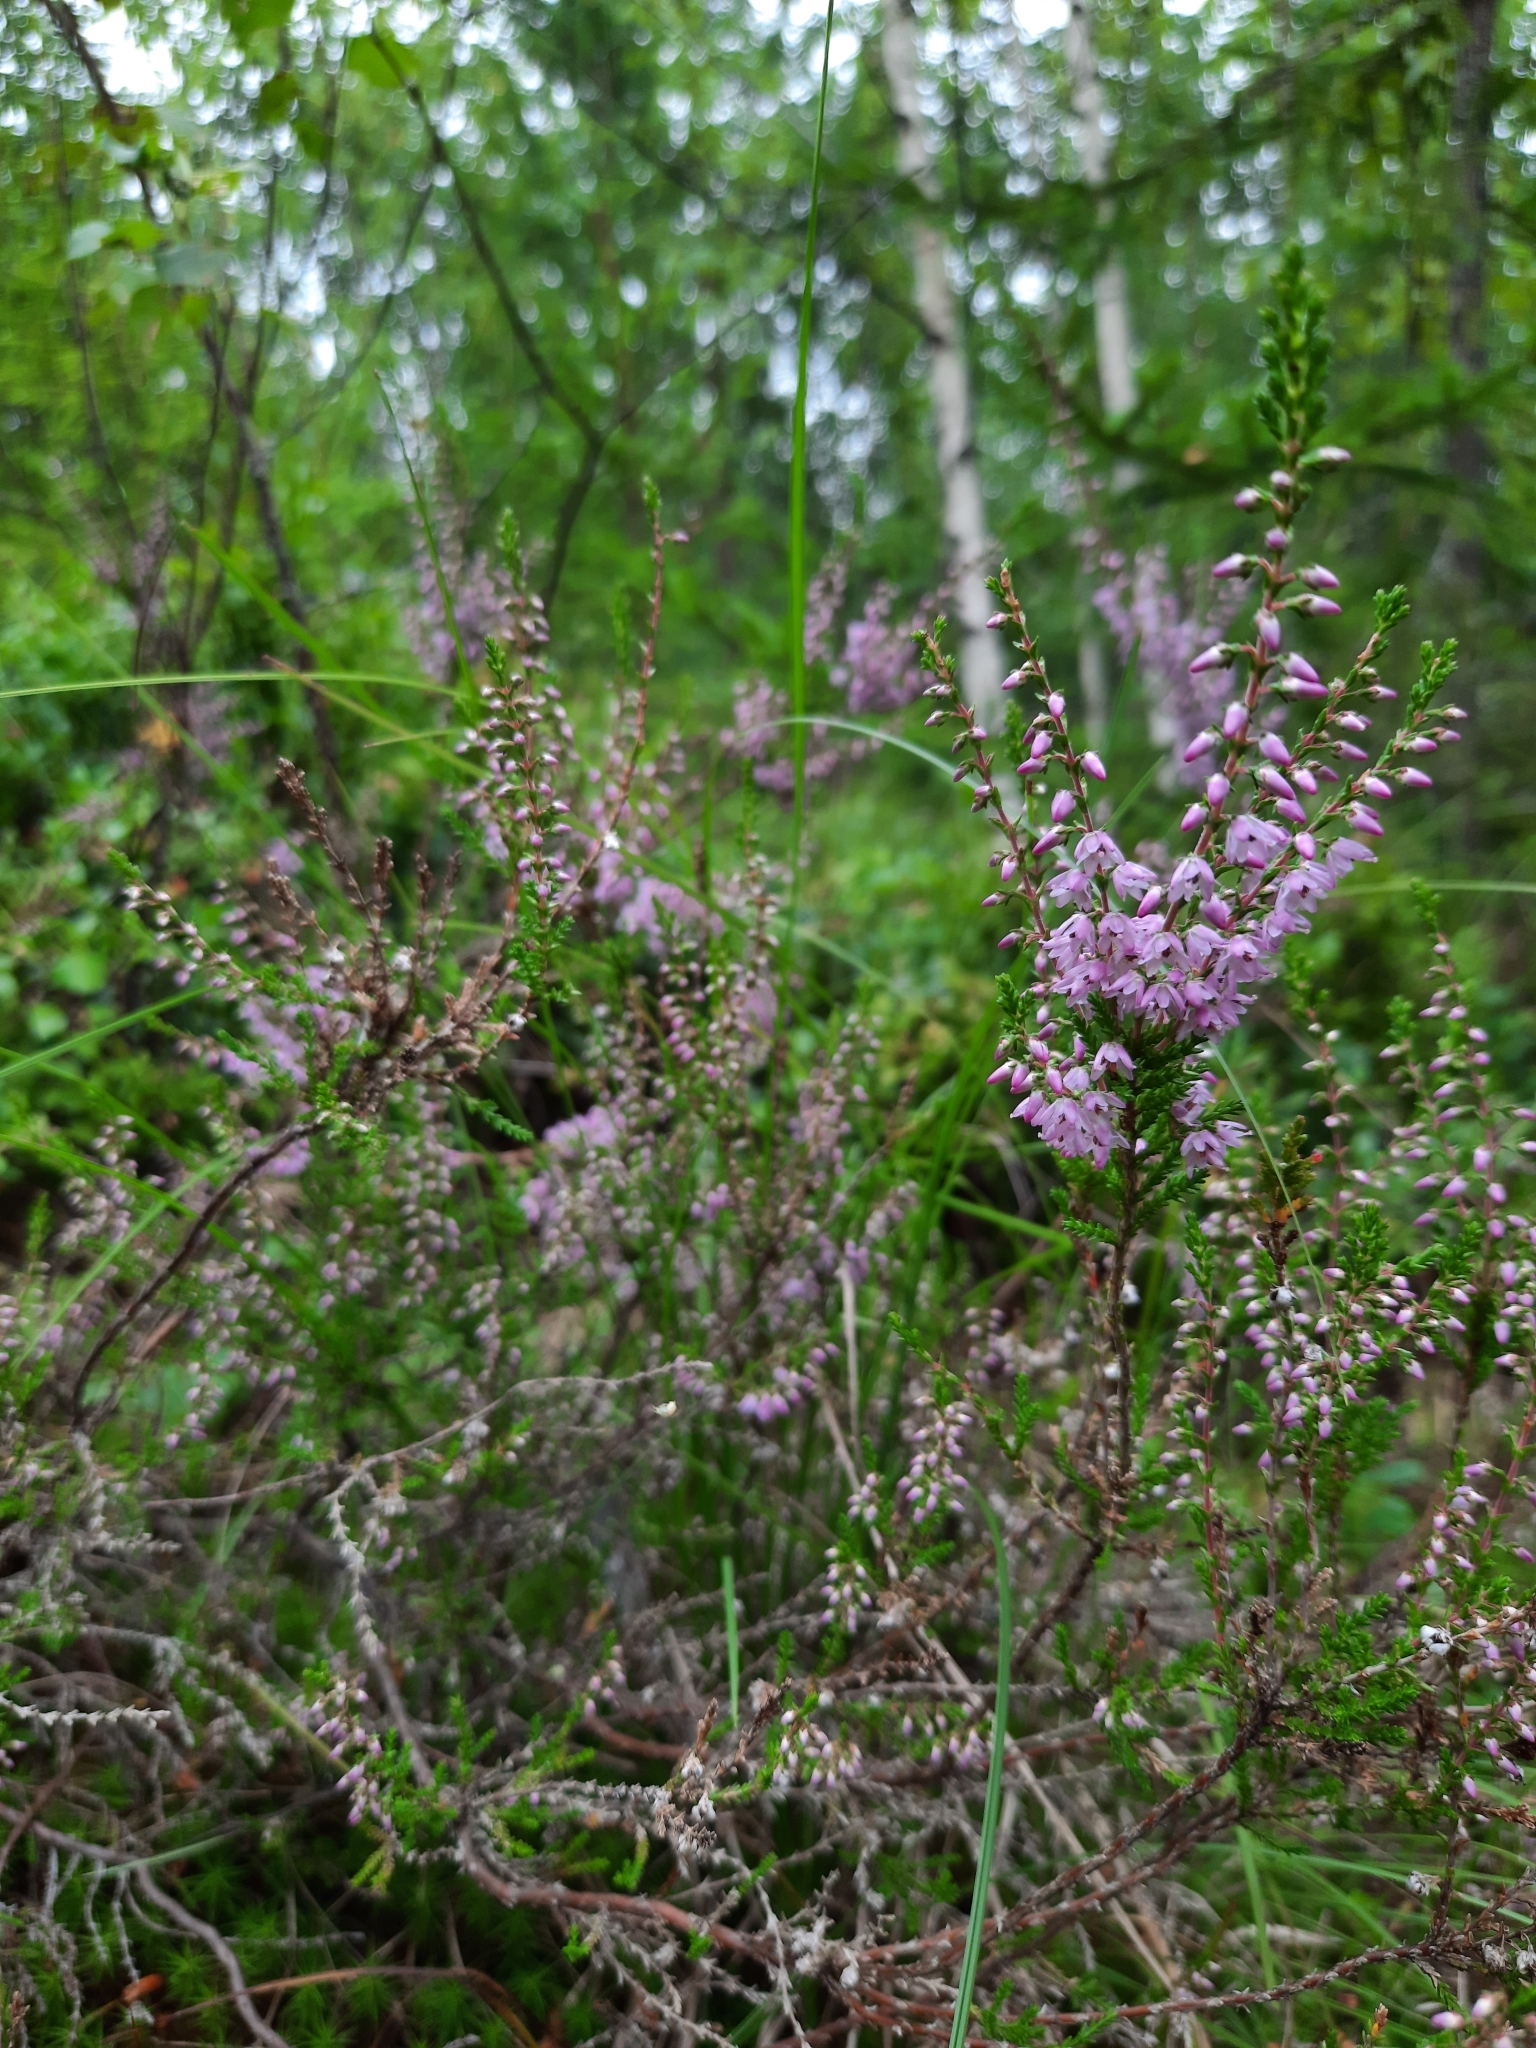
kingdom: Plantae
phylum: Tracheophyta
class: Magnoliopsida
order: Ericales
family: Ericaceae
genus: Calluna
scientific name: Calluna vulgaris
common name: Heather
